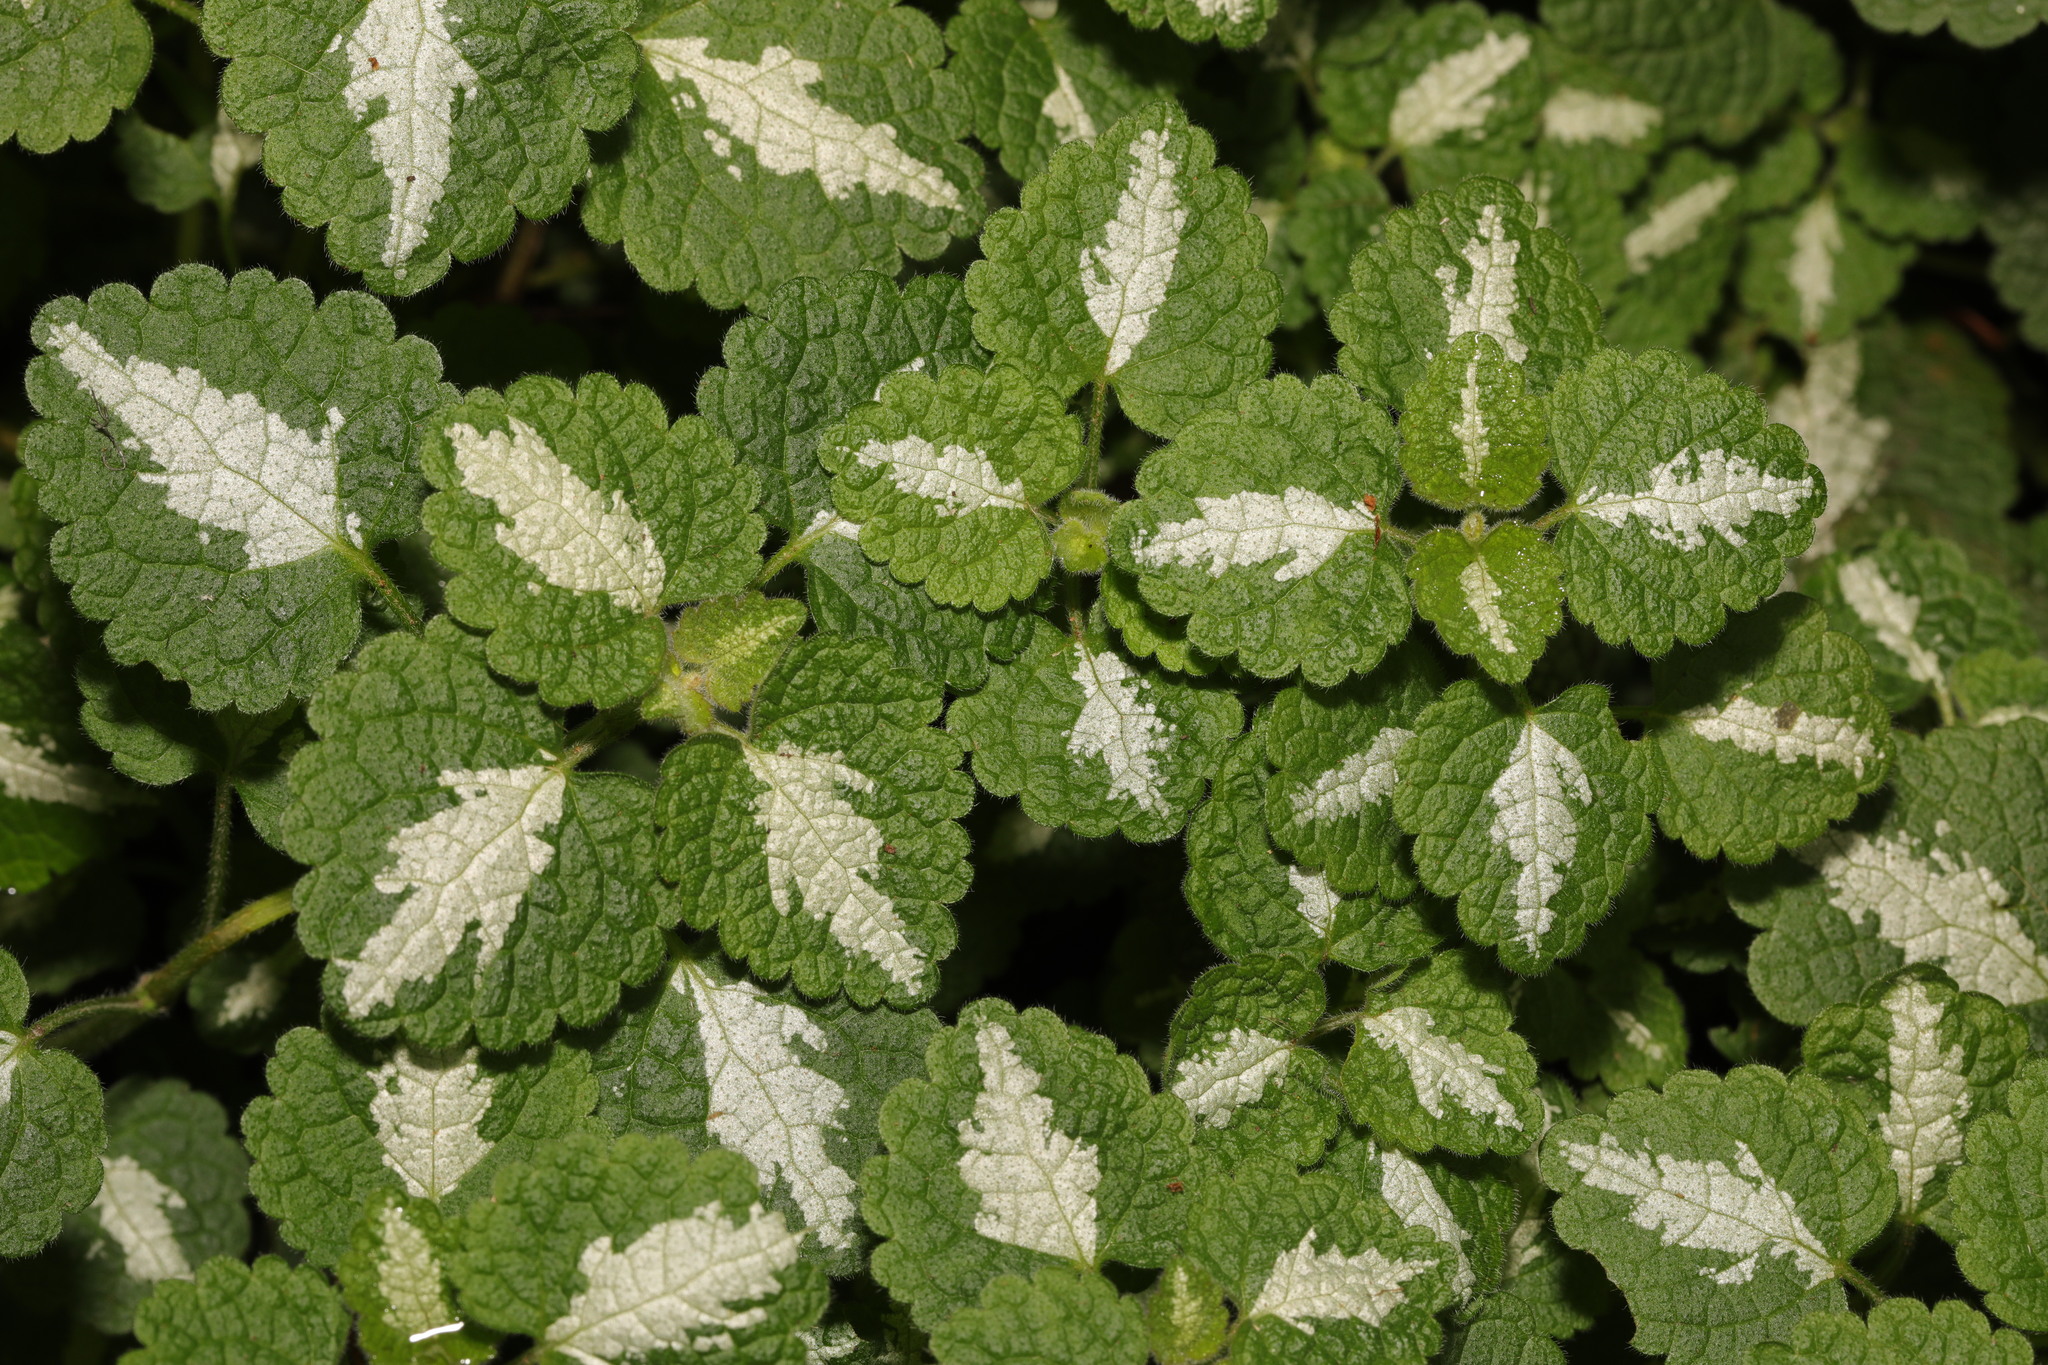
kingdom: Plantae
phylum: Tracheophyta
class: Magnoliopsida
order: Lamiales
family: Lamiaceae
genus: Lamium
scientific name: Lamium maculatum
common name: Spotted dead-nettle
